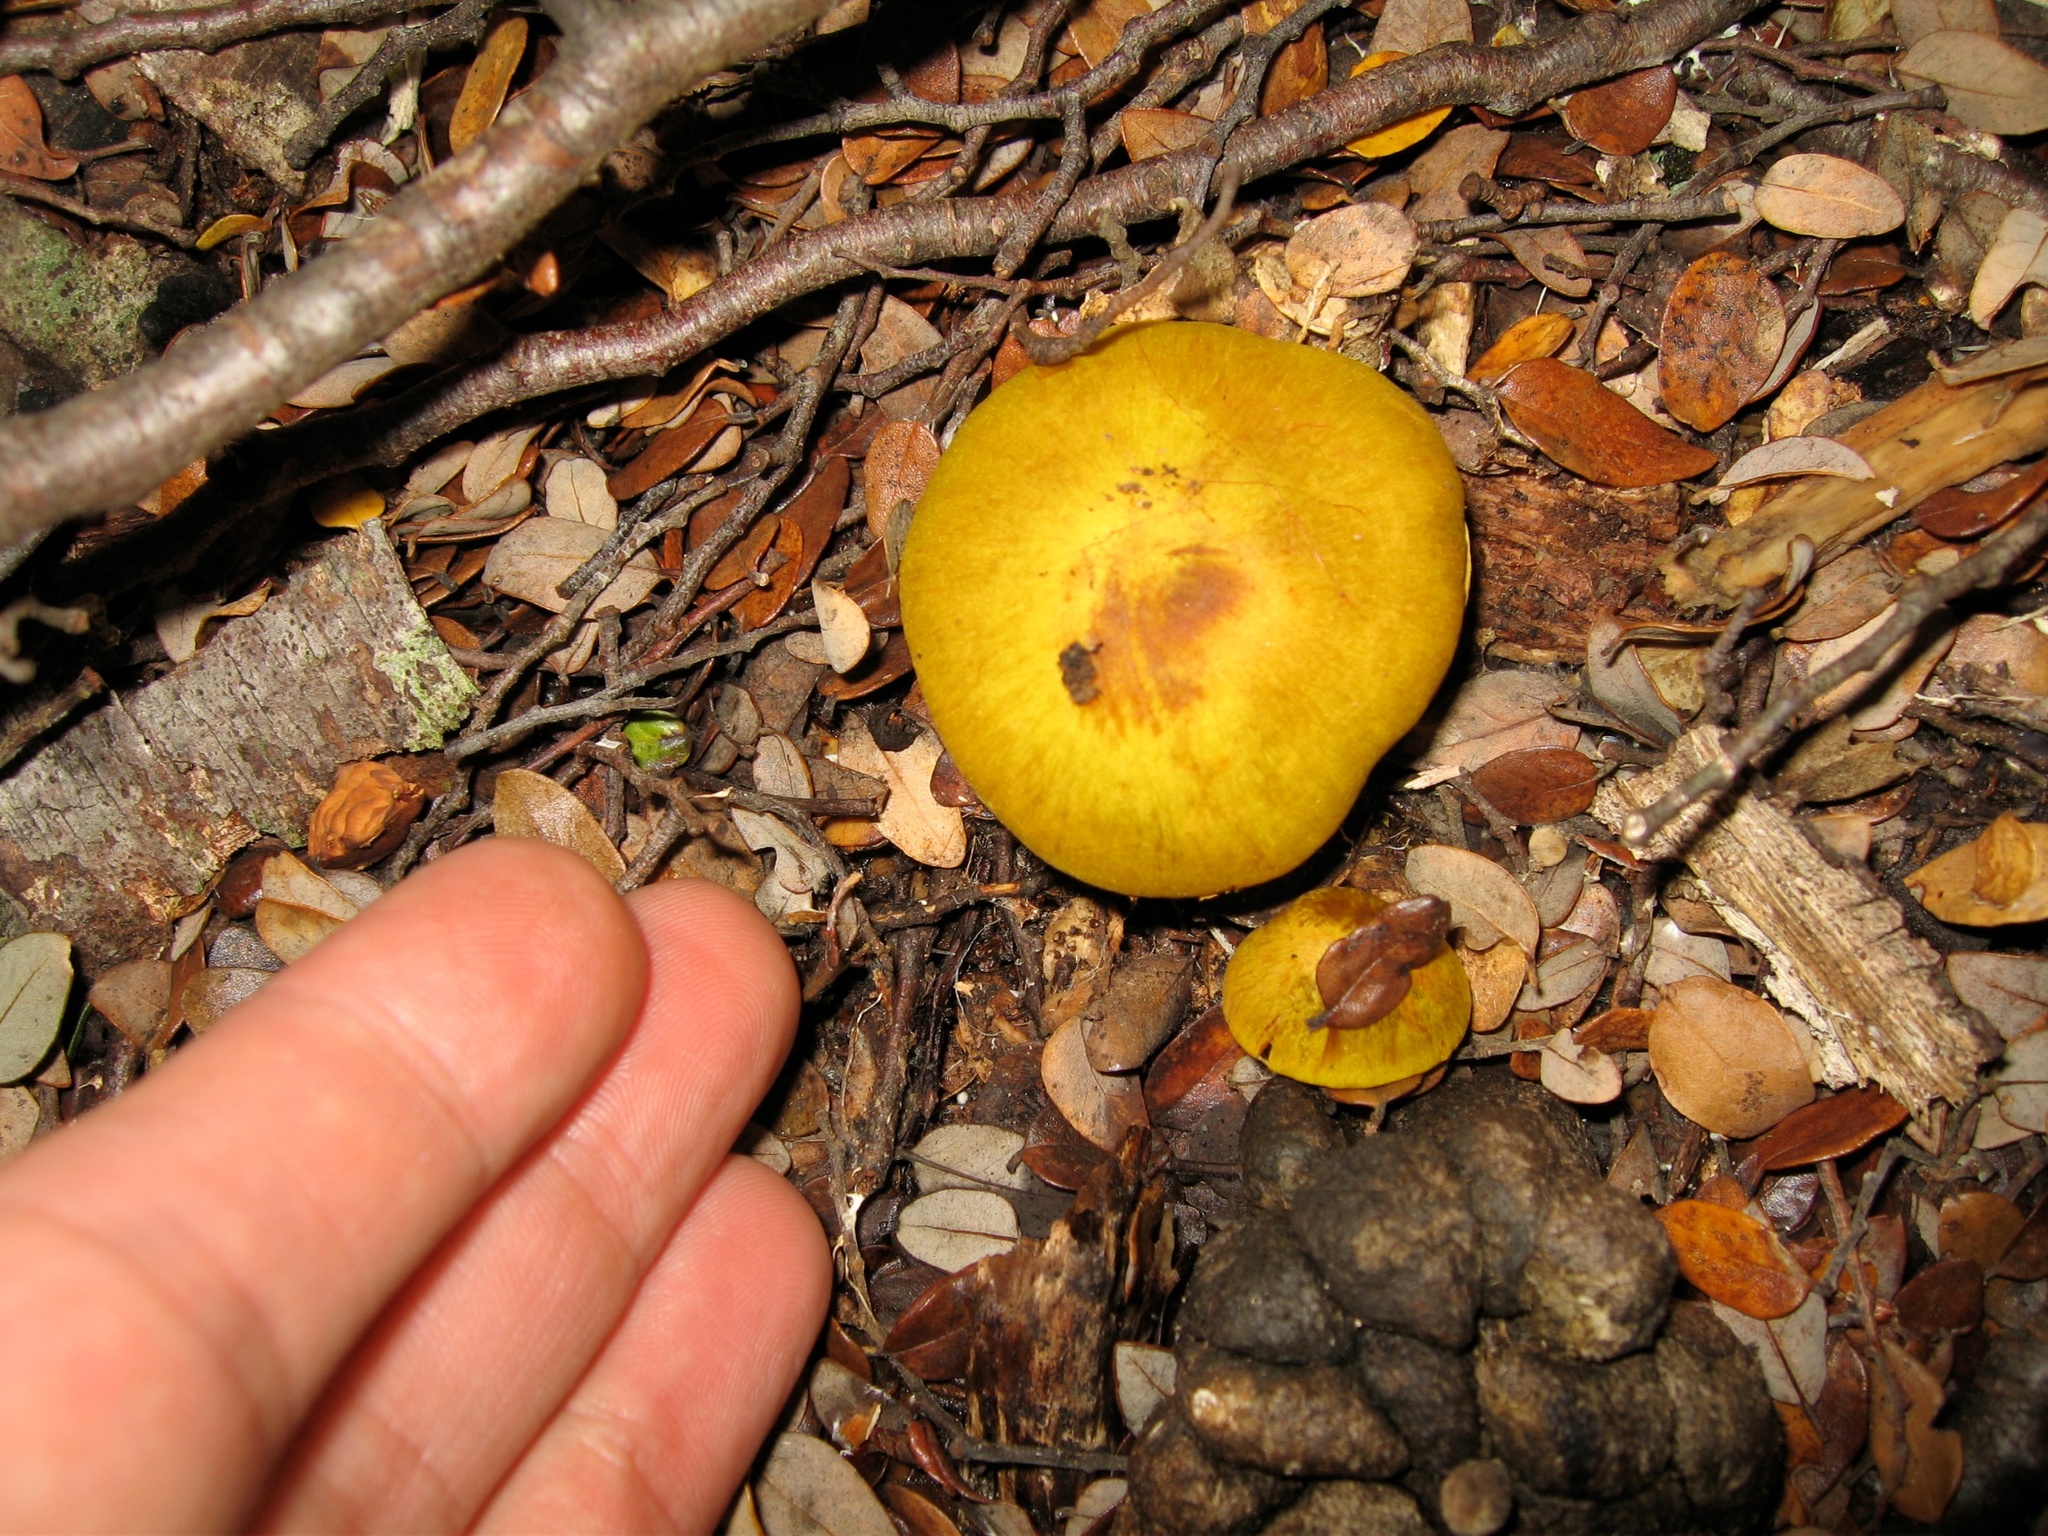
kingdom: Fungi
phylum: Basidiomycota
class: Agaricomycetes
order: Agaricales
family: Cortinariaceae
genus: Cortinarius
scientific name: Cortinarius canarius
